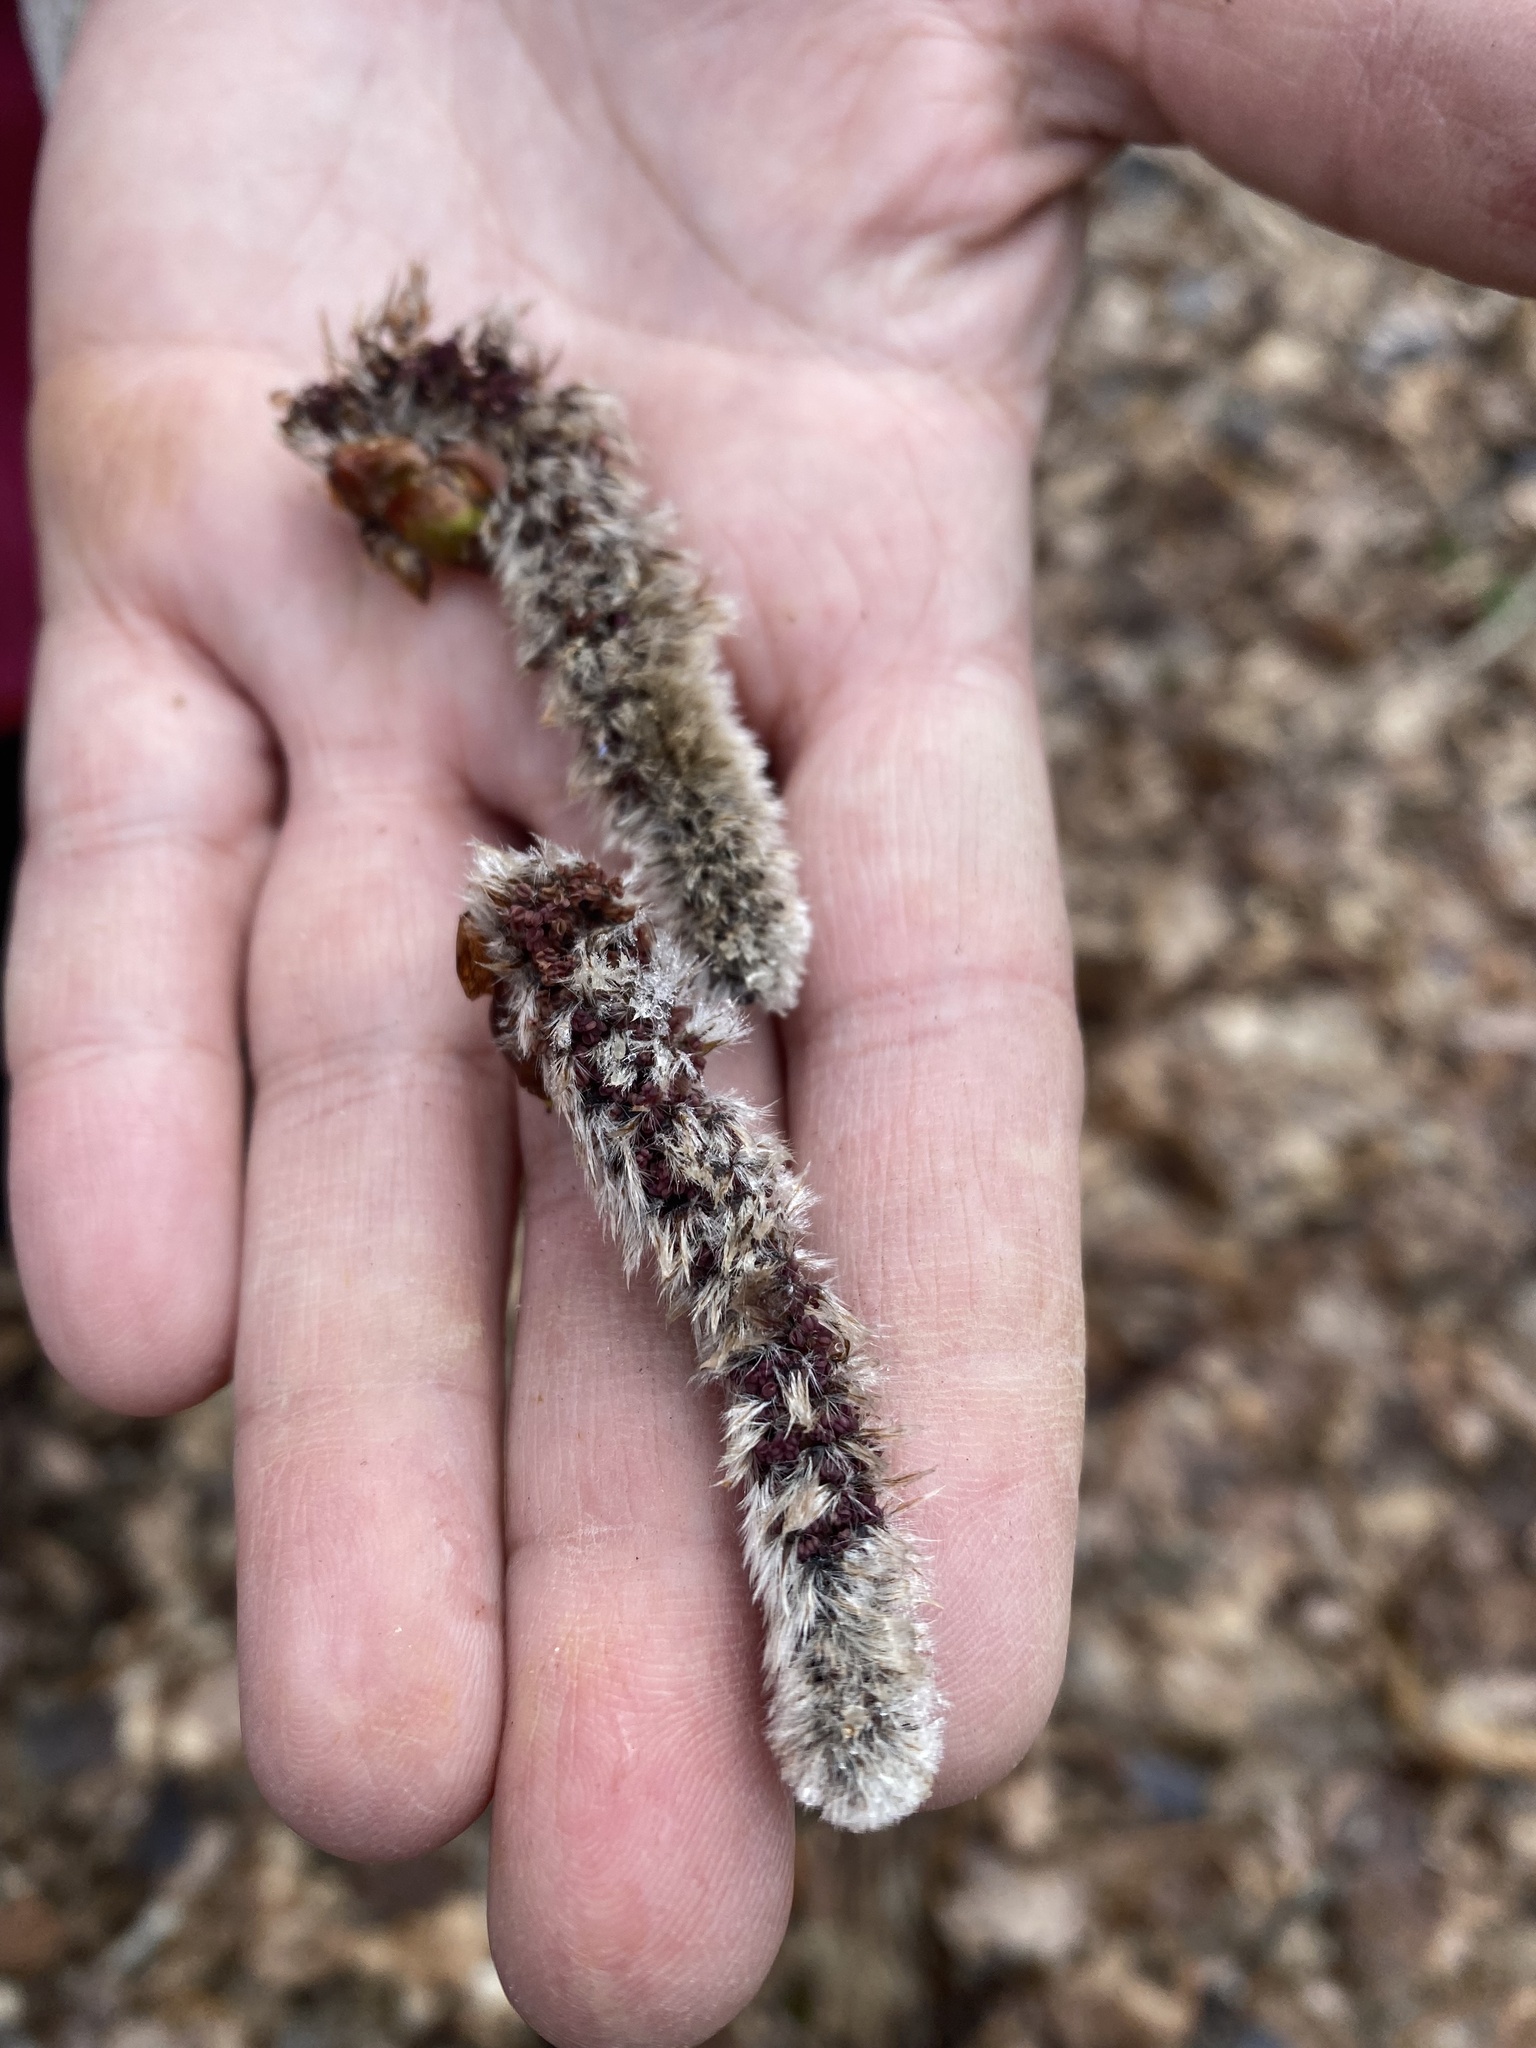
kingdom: Plantae
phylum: Tracheophyta
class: Magnoliopsida
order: Malpighiales
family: Salicaceae
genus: Populus
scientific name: Populus tremula
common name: European aspen
